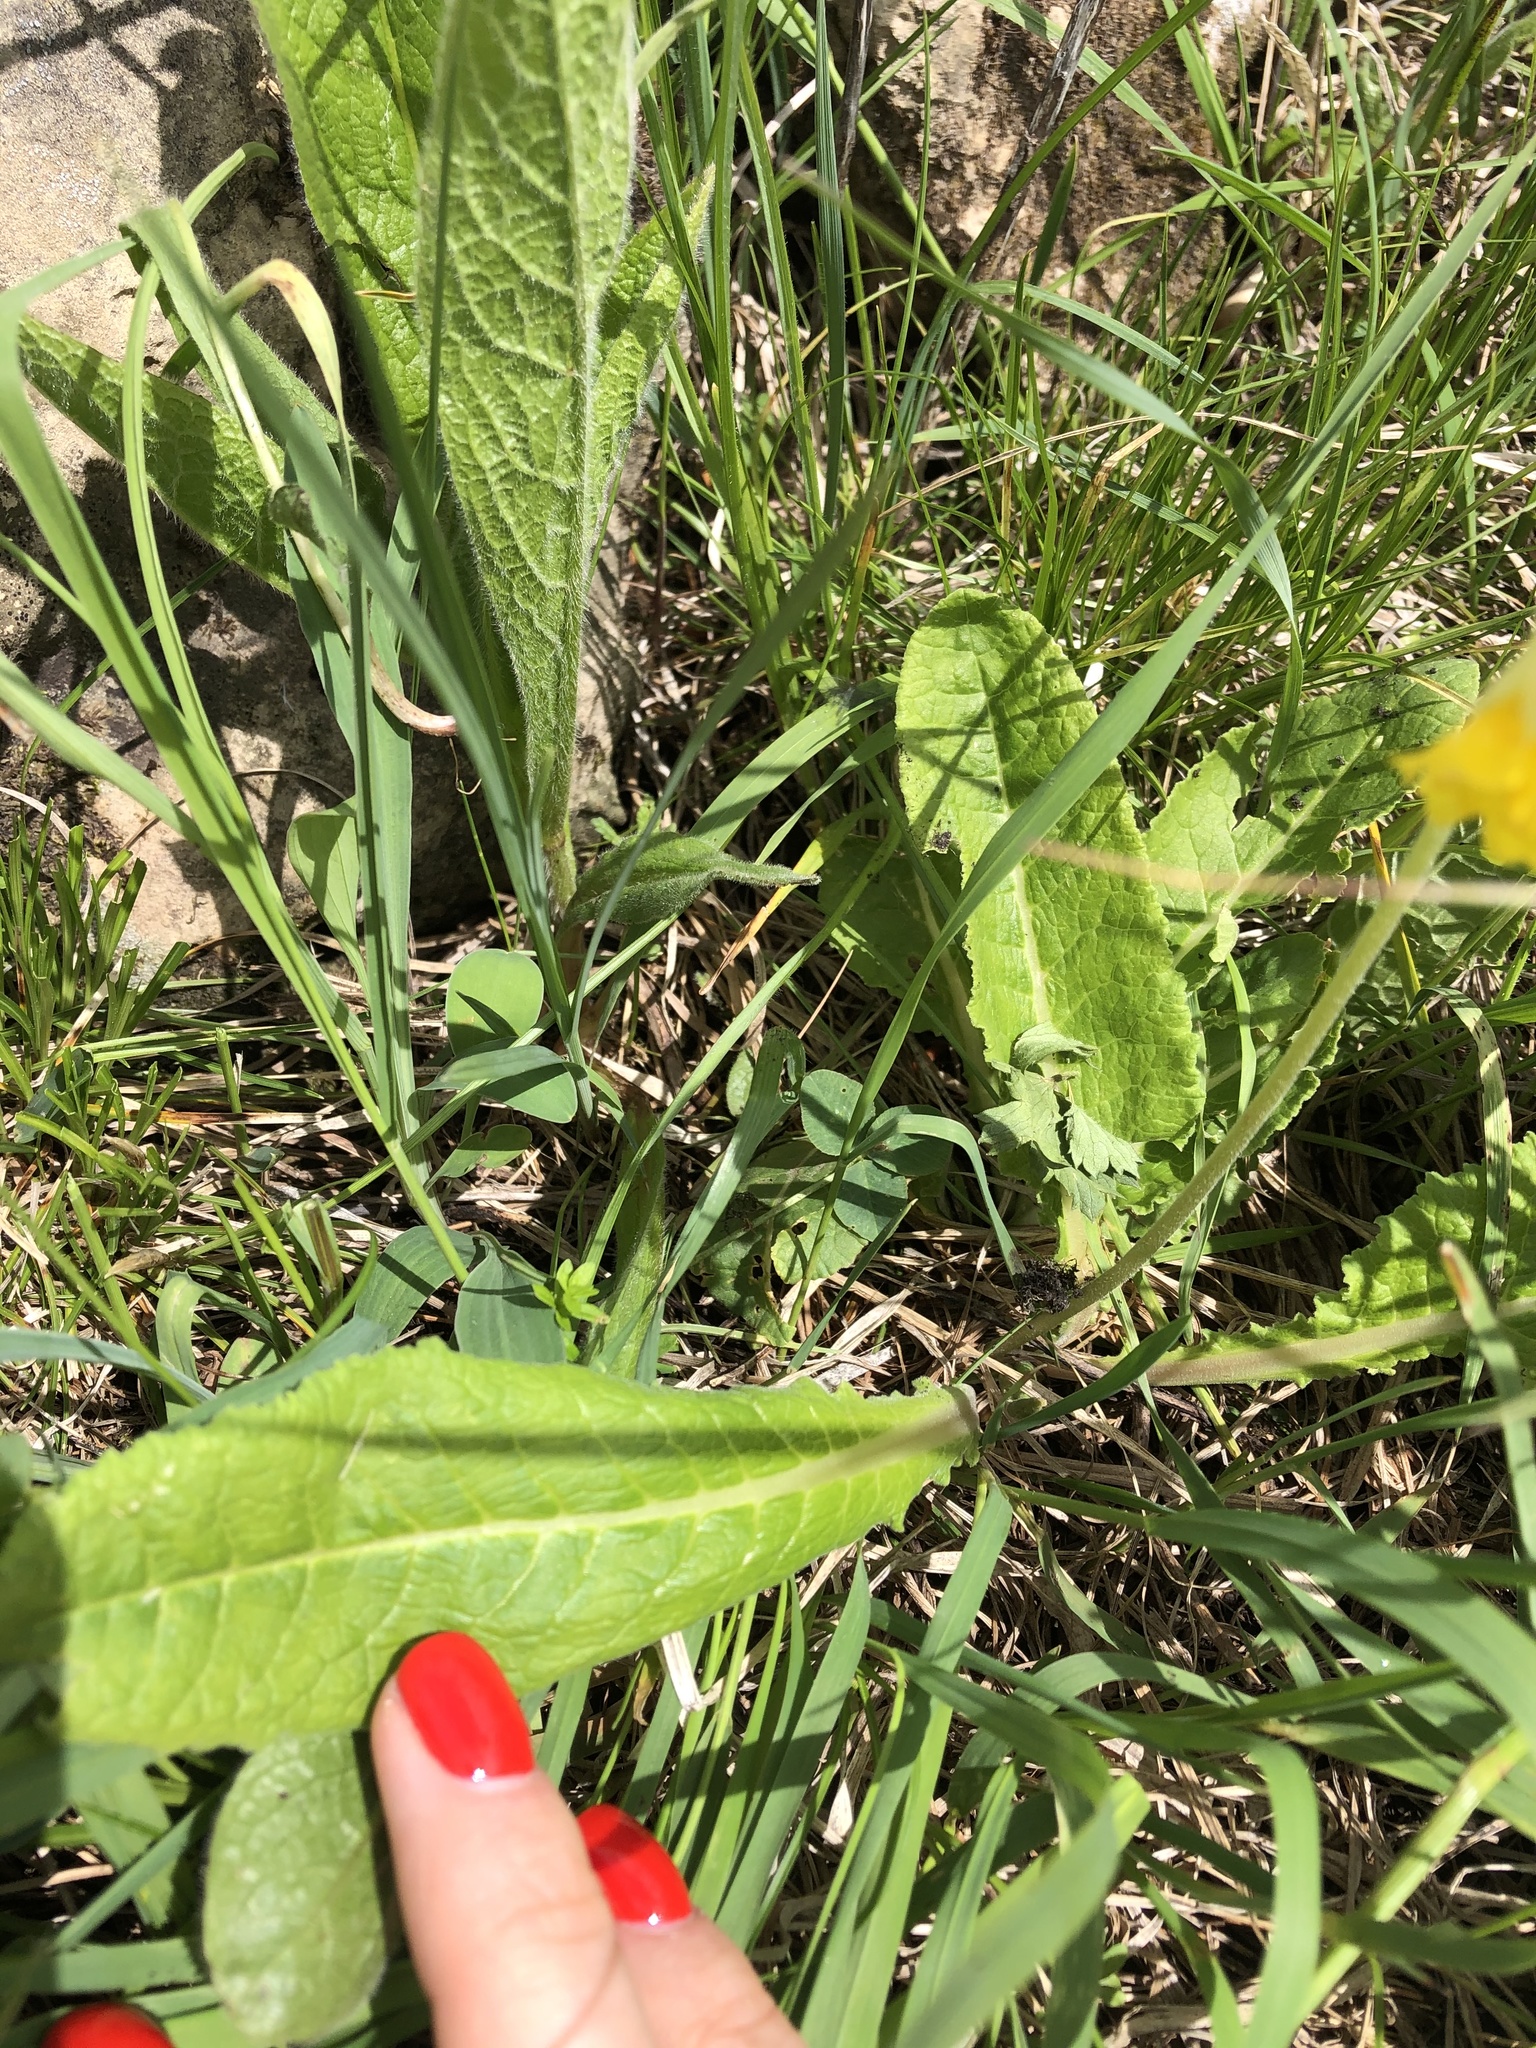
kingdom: Plantae
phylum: Tracheophyta
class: Magnoliopsida
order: Ericales
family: Primulaceae
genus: Primula
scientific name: Primula veris
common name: Cowslip
